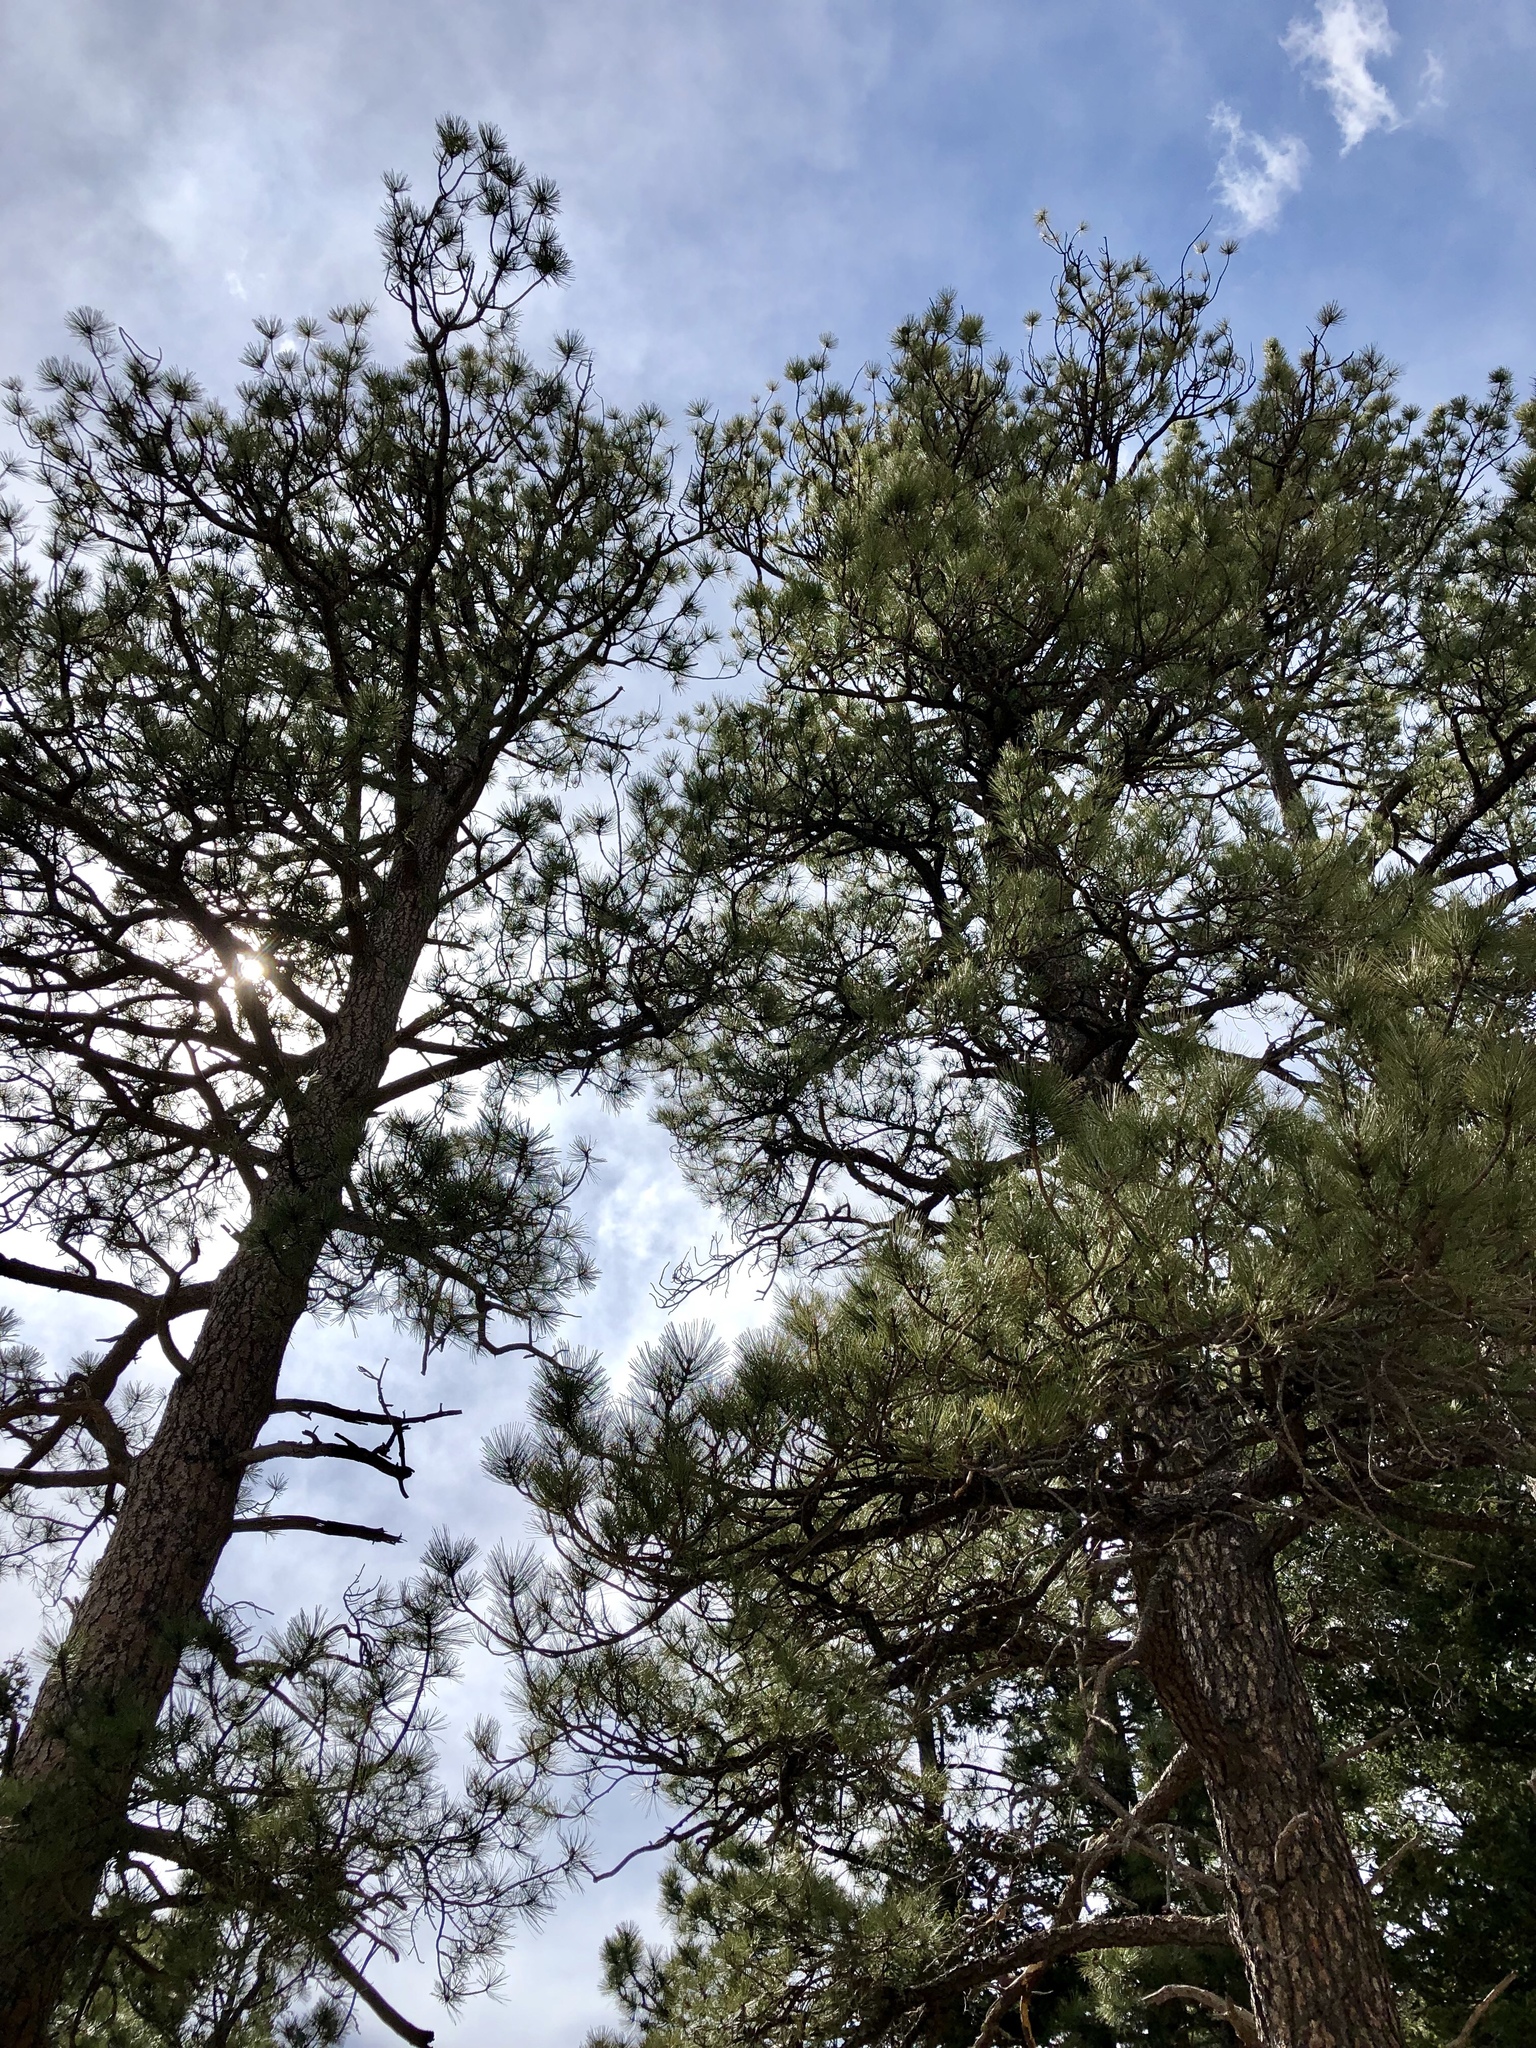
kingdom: Plantae
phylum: Tracheophyta
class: Pinopsida
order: Pinales
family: Pinaceae
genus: Pinus
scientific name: Pinus ponderosa
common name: Western yellow-pine
